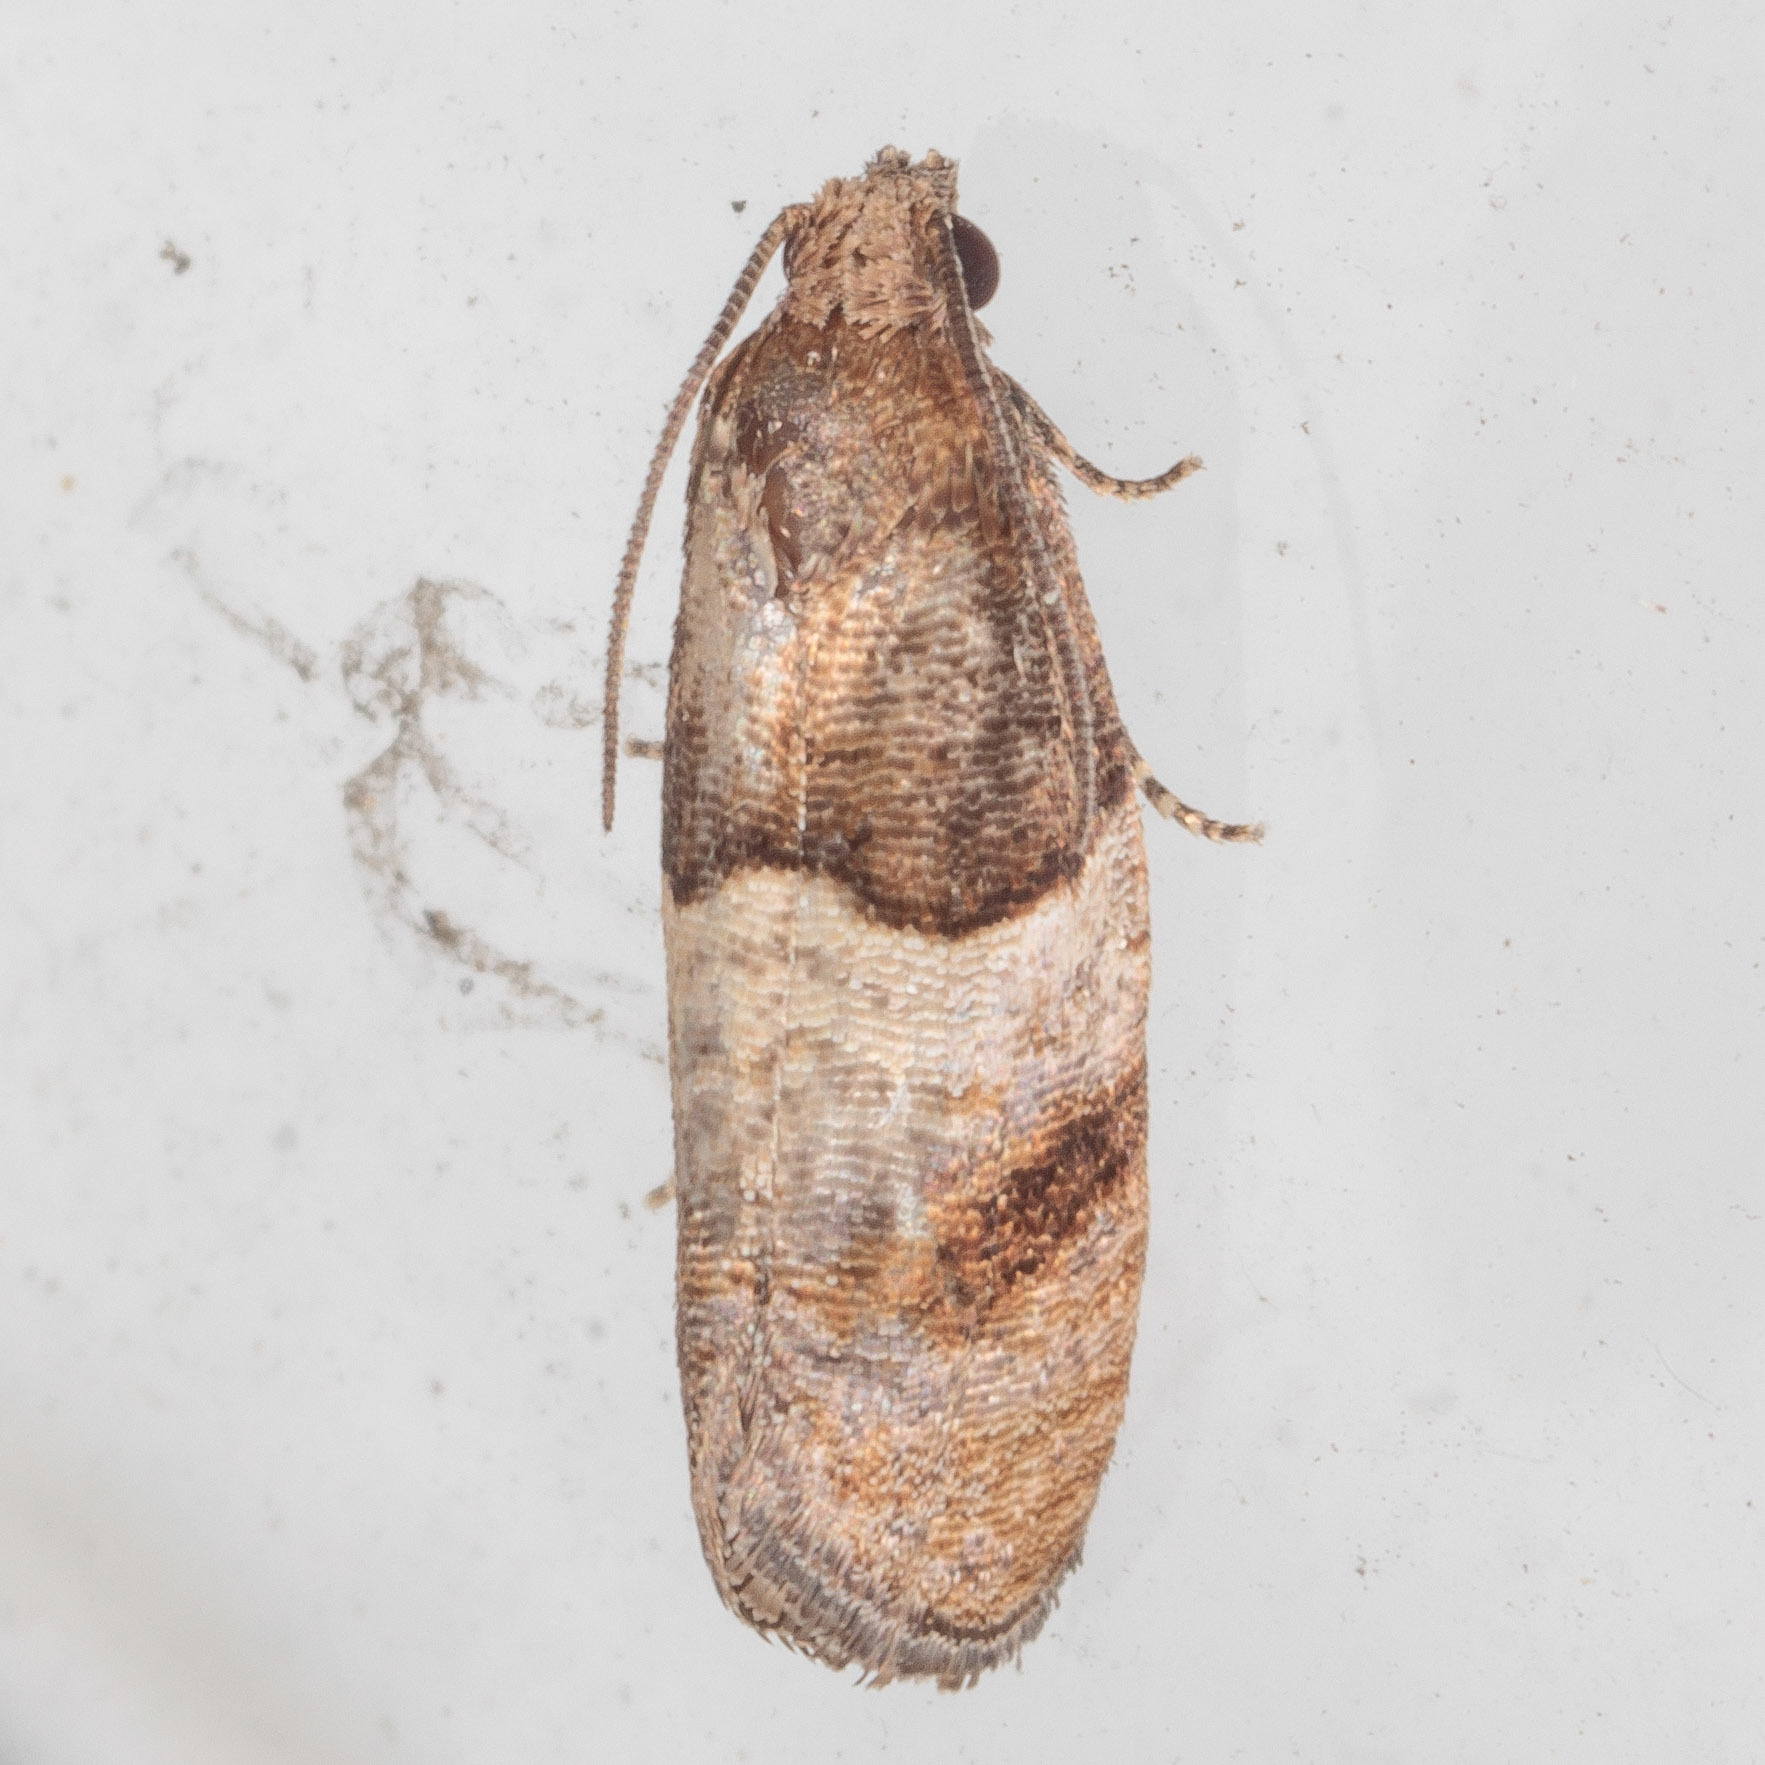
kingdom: Animalia
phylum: Arthropoda
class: Insecta
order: Lepidoptera
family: Tortricidae
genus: Larisa
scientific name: Larisa subsolana
